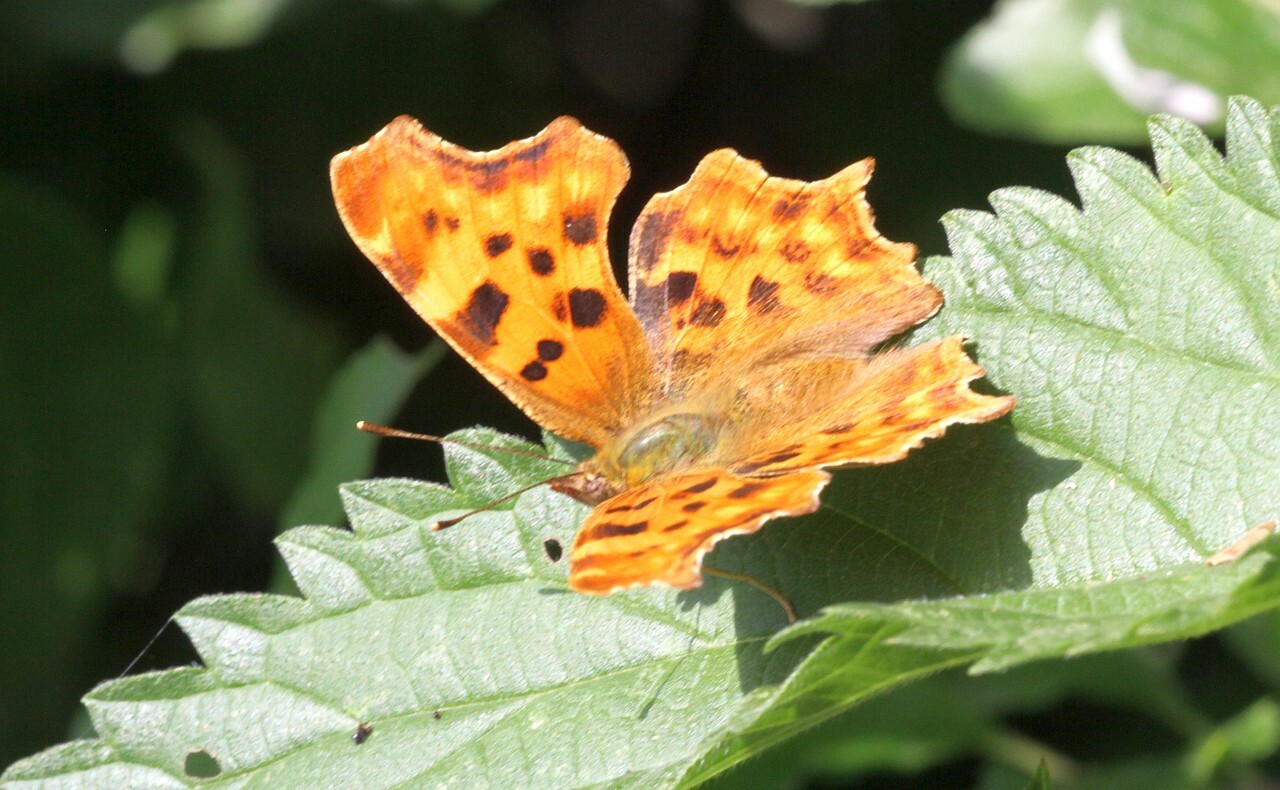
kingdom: Animalia
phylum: Arthropoda
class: Insecta
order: Lepidoptera
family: Nymphalidae
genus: Polygonia
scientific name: Polygonia c-album
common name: Comma
